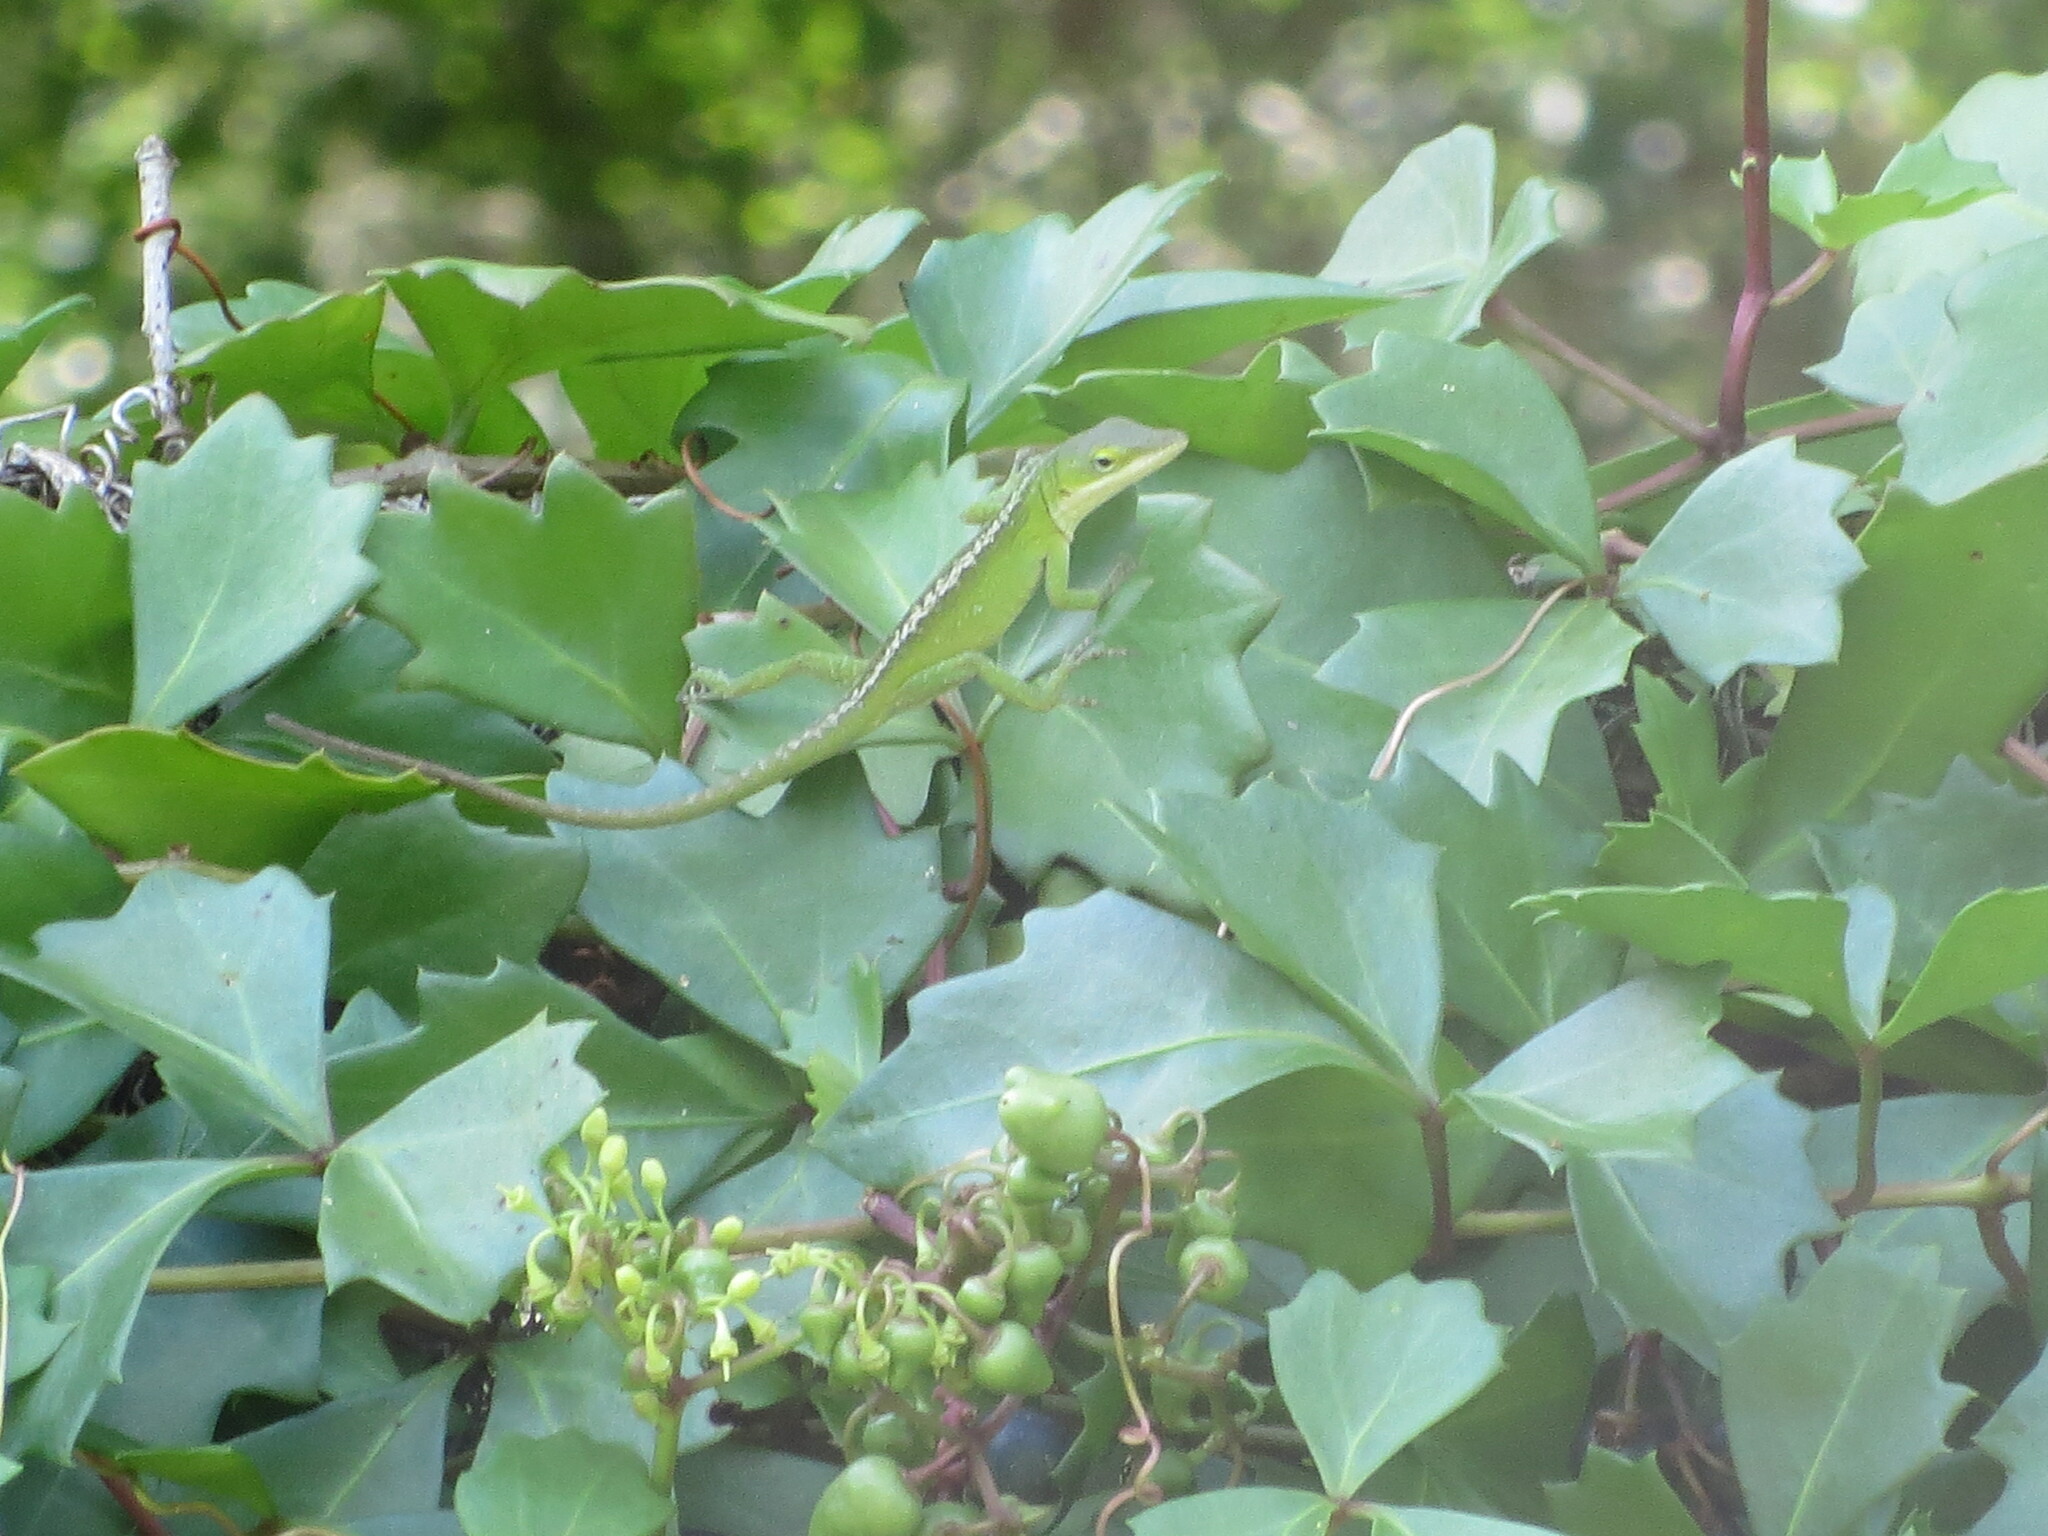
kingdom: Animalia
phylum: Chordata
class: Squamata
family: Dactyloidae
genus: Anolis
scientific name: Anolis carolinensis
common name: Green anole
